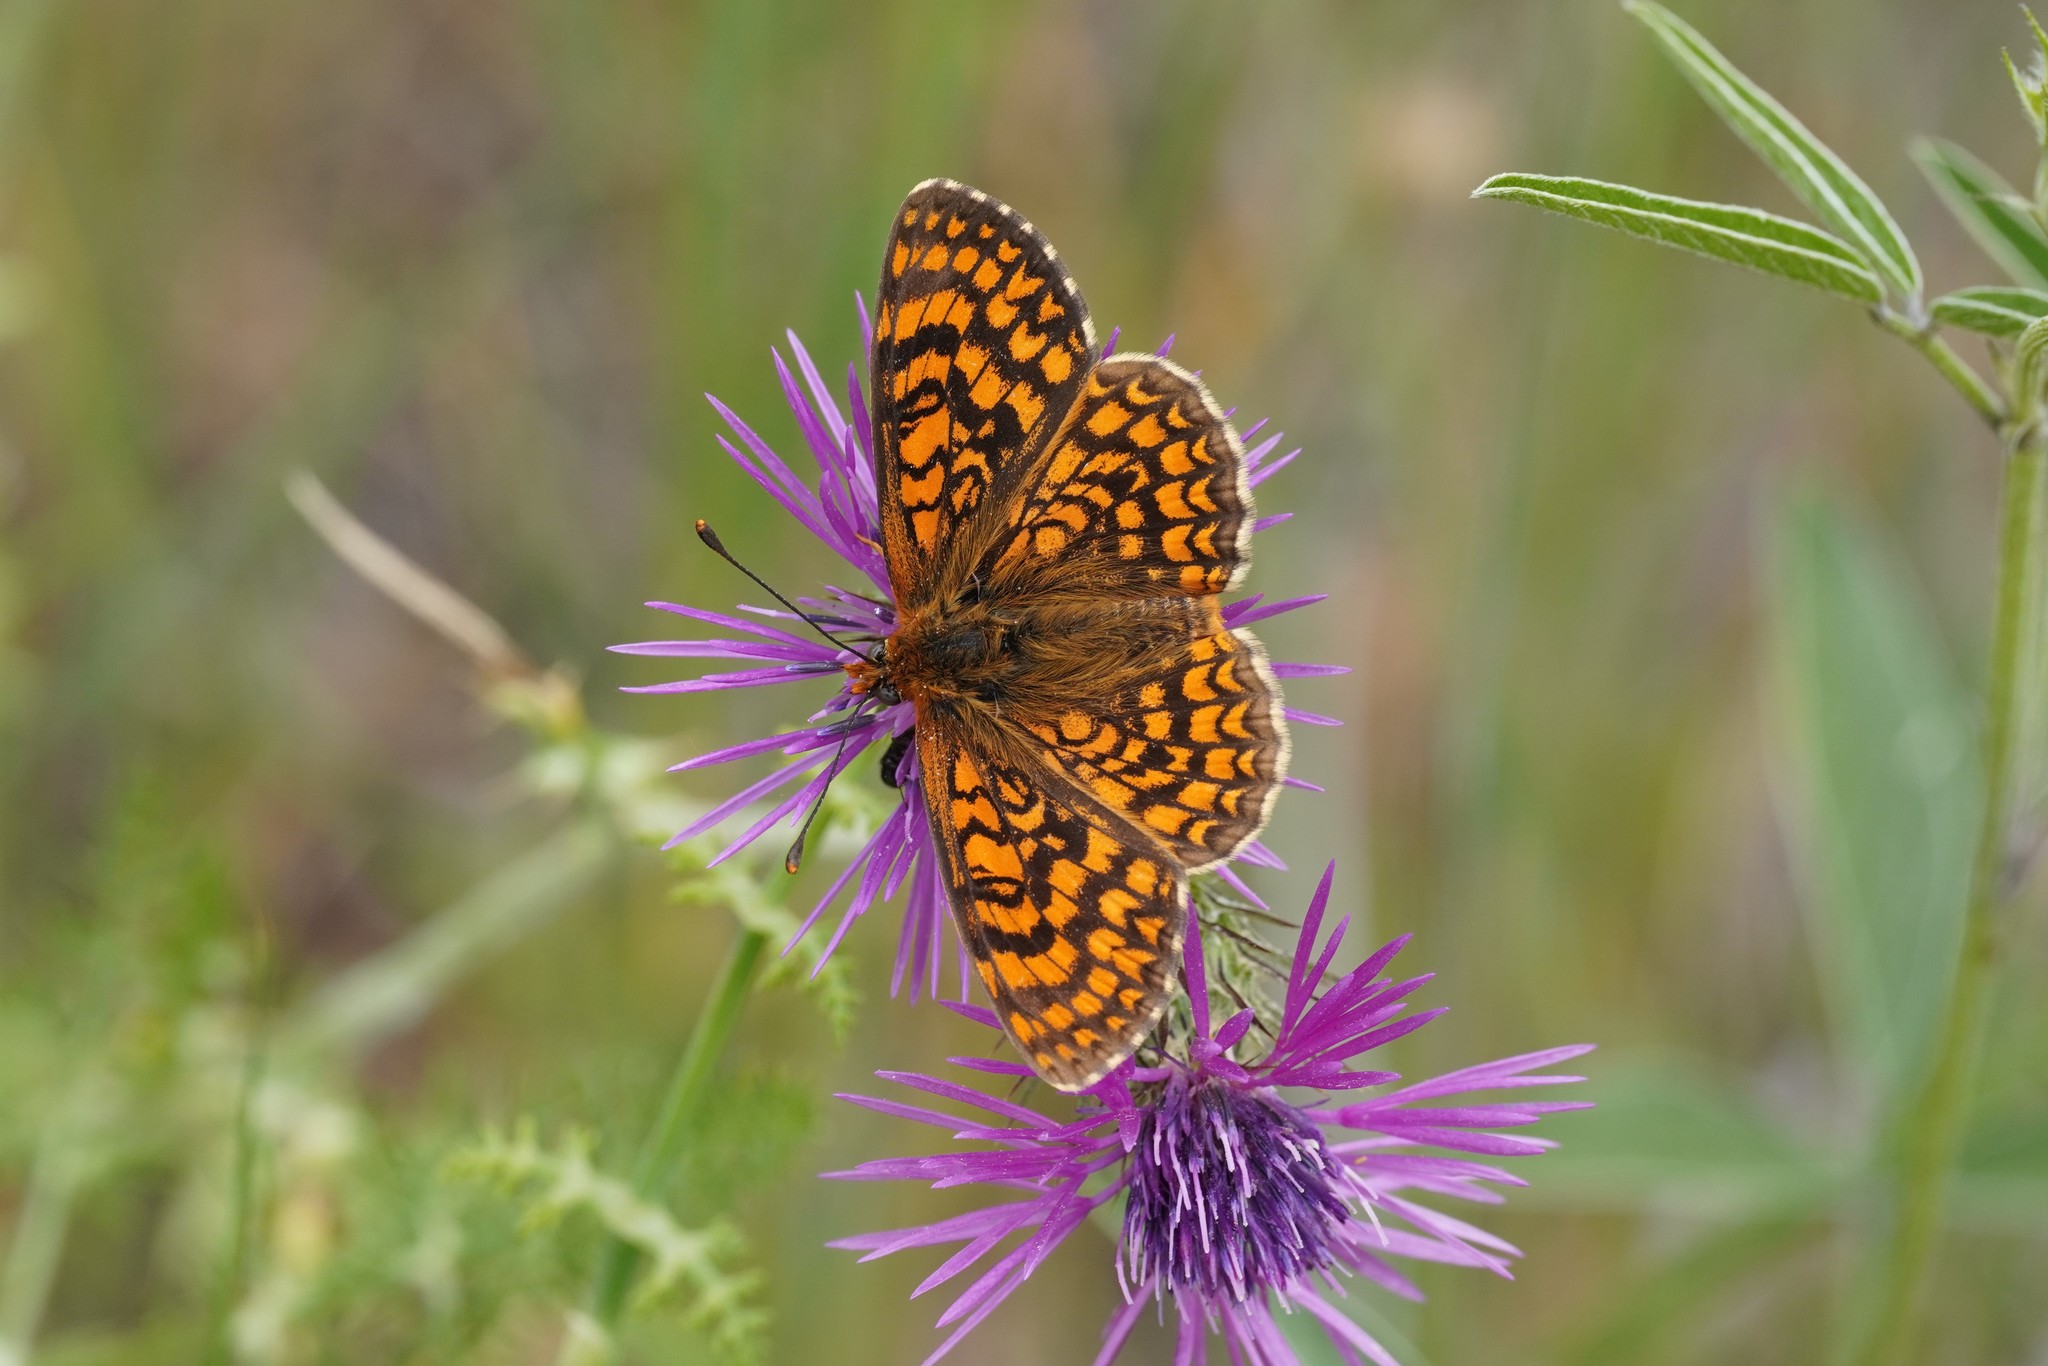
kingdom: Animalia
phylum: Arthropoda
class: Insecta
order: Lepidoptera
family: Nymphalidae
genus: Melitaea
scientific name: Melitaea deione
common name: Provençal fritillary
